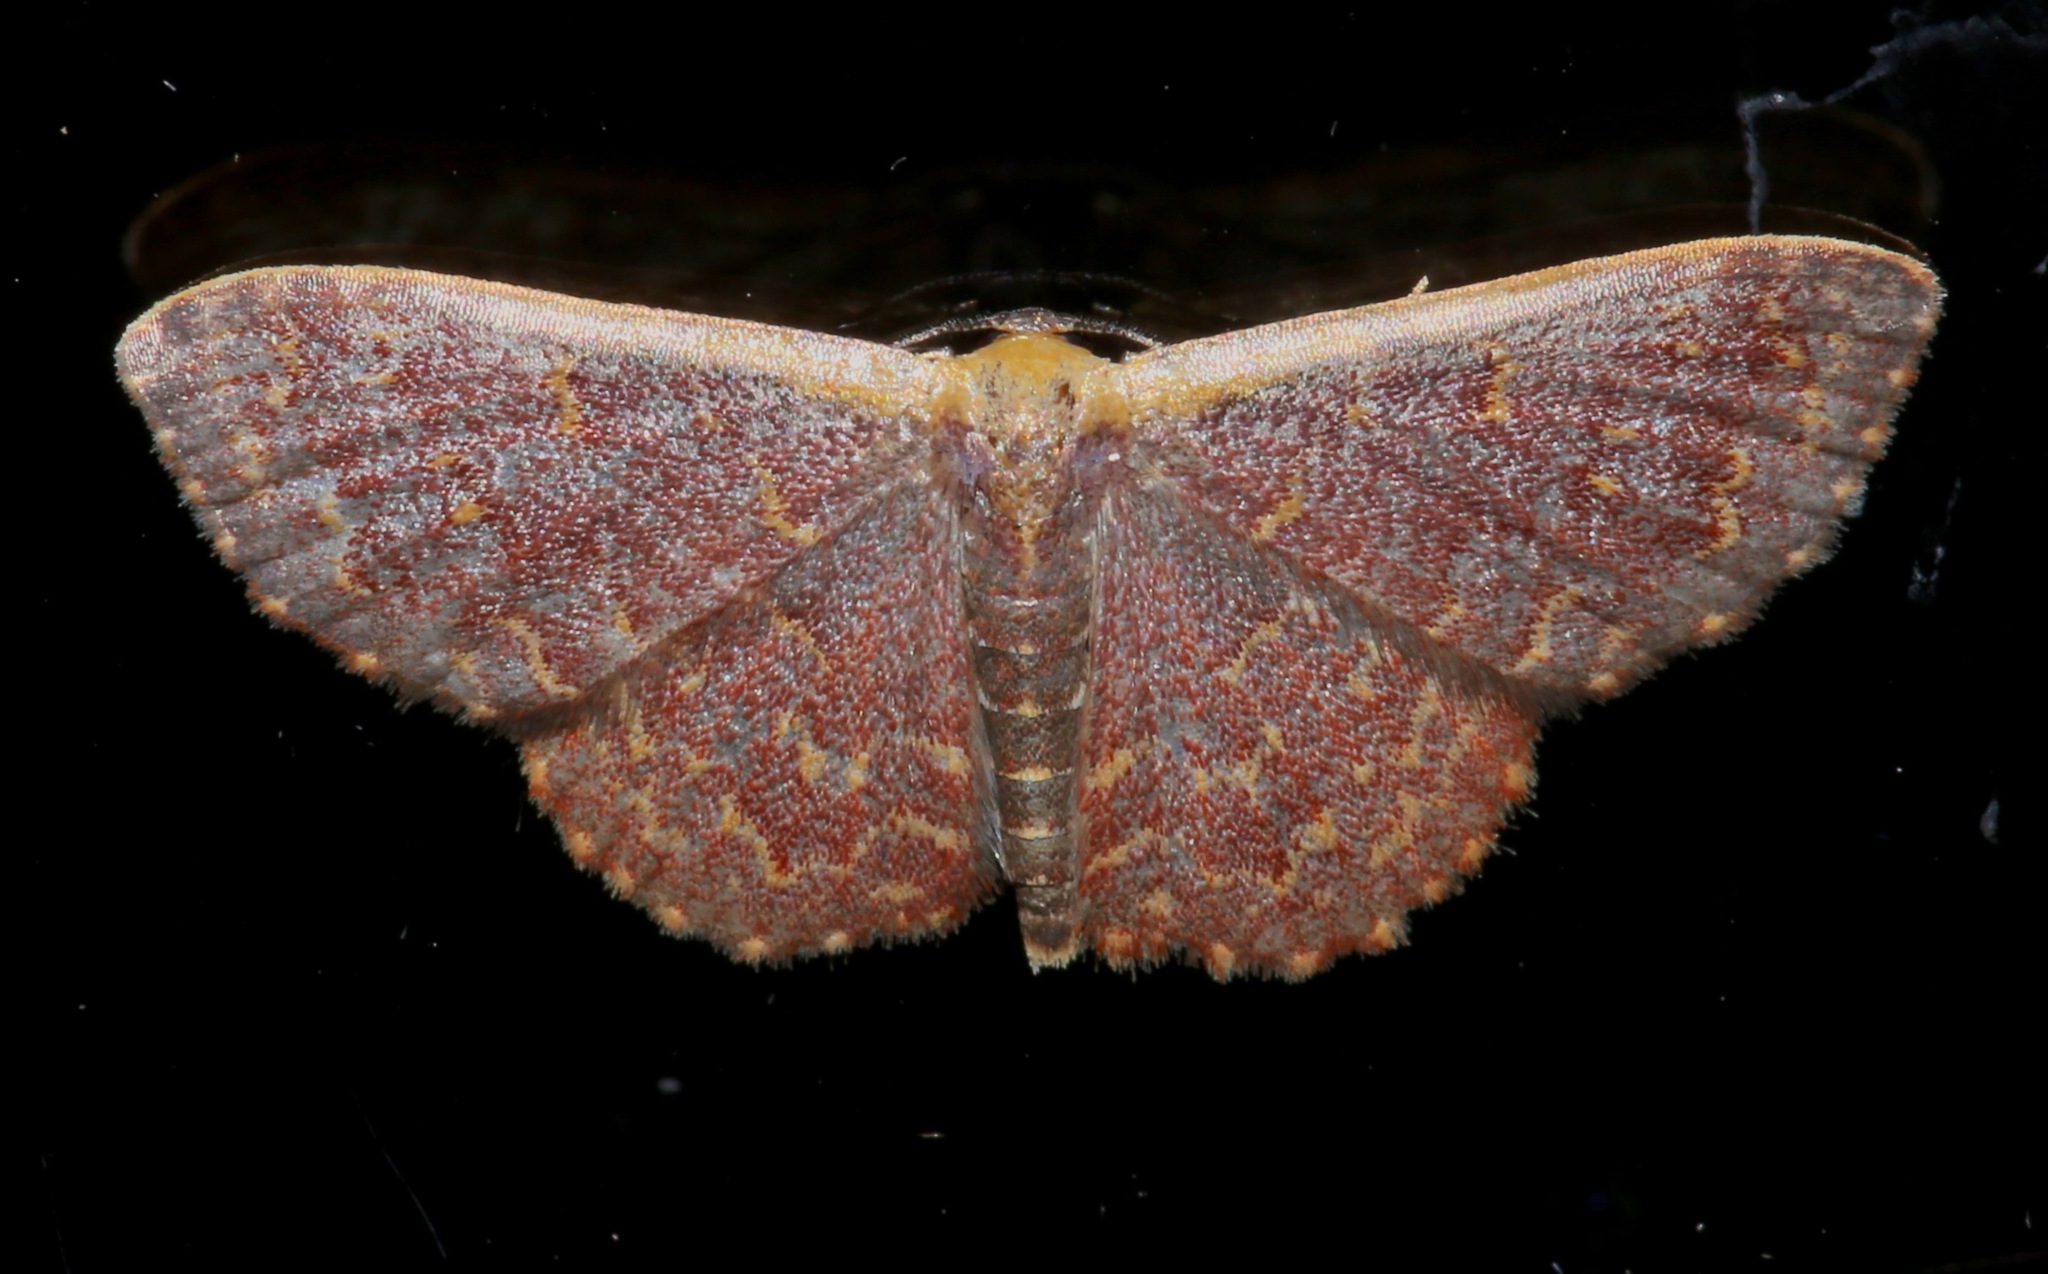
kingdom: Animalia
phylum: Arthropoda
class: Insecta
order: Lepidoptera
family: Geometridae
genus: Leptostales
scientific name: Leptostales pannaria
